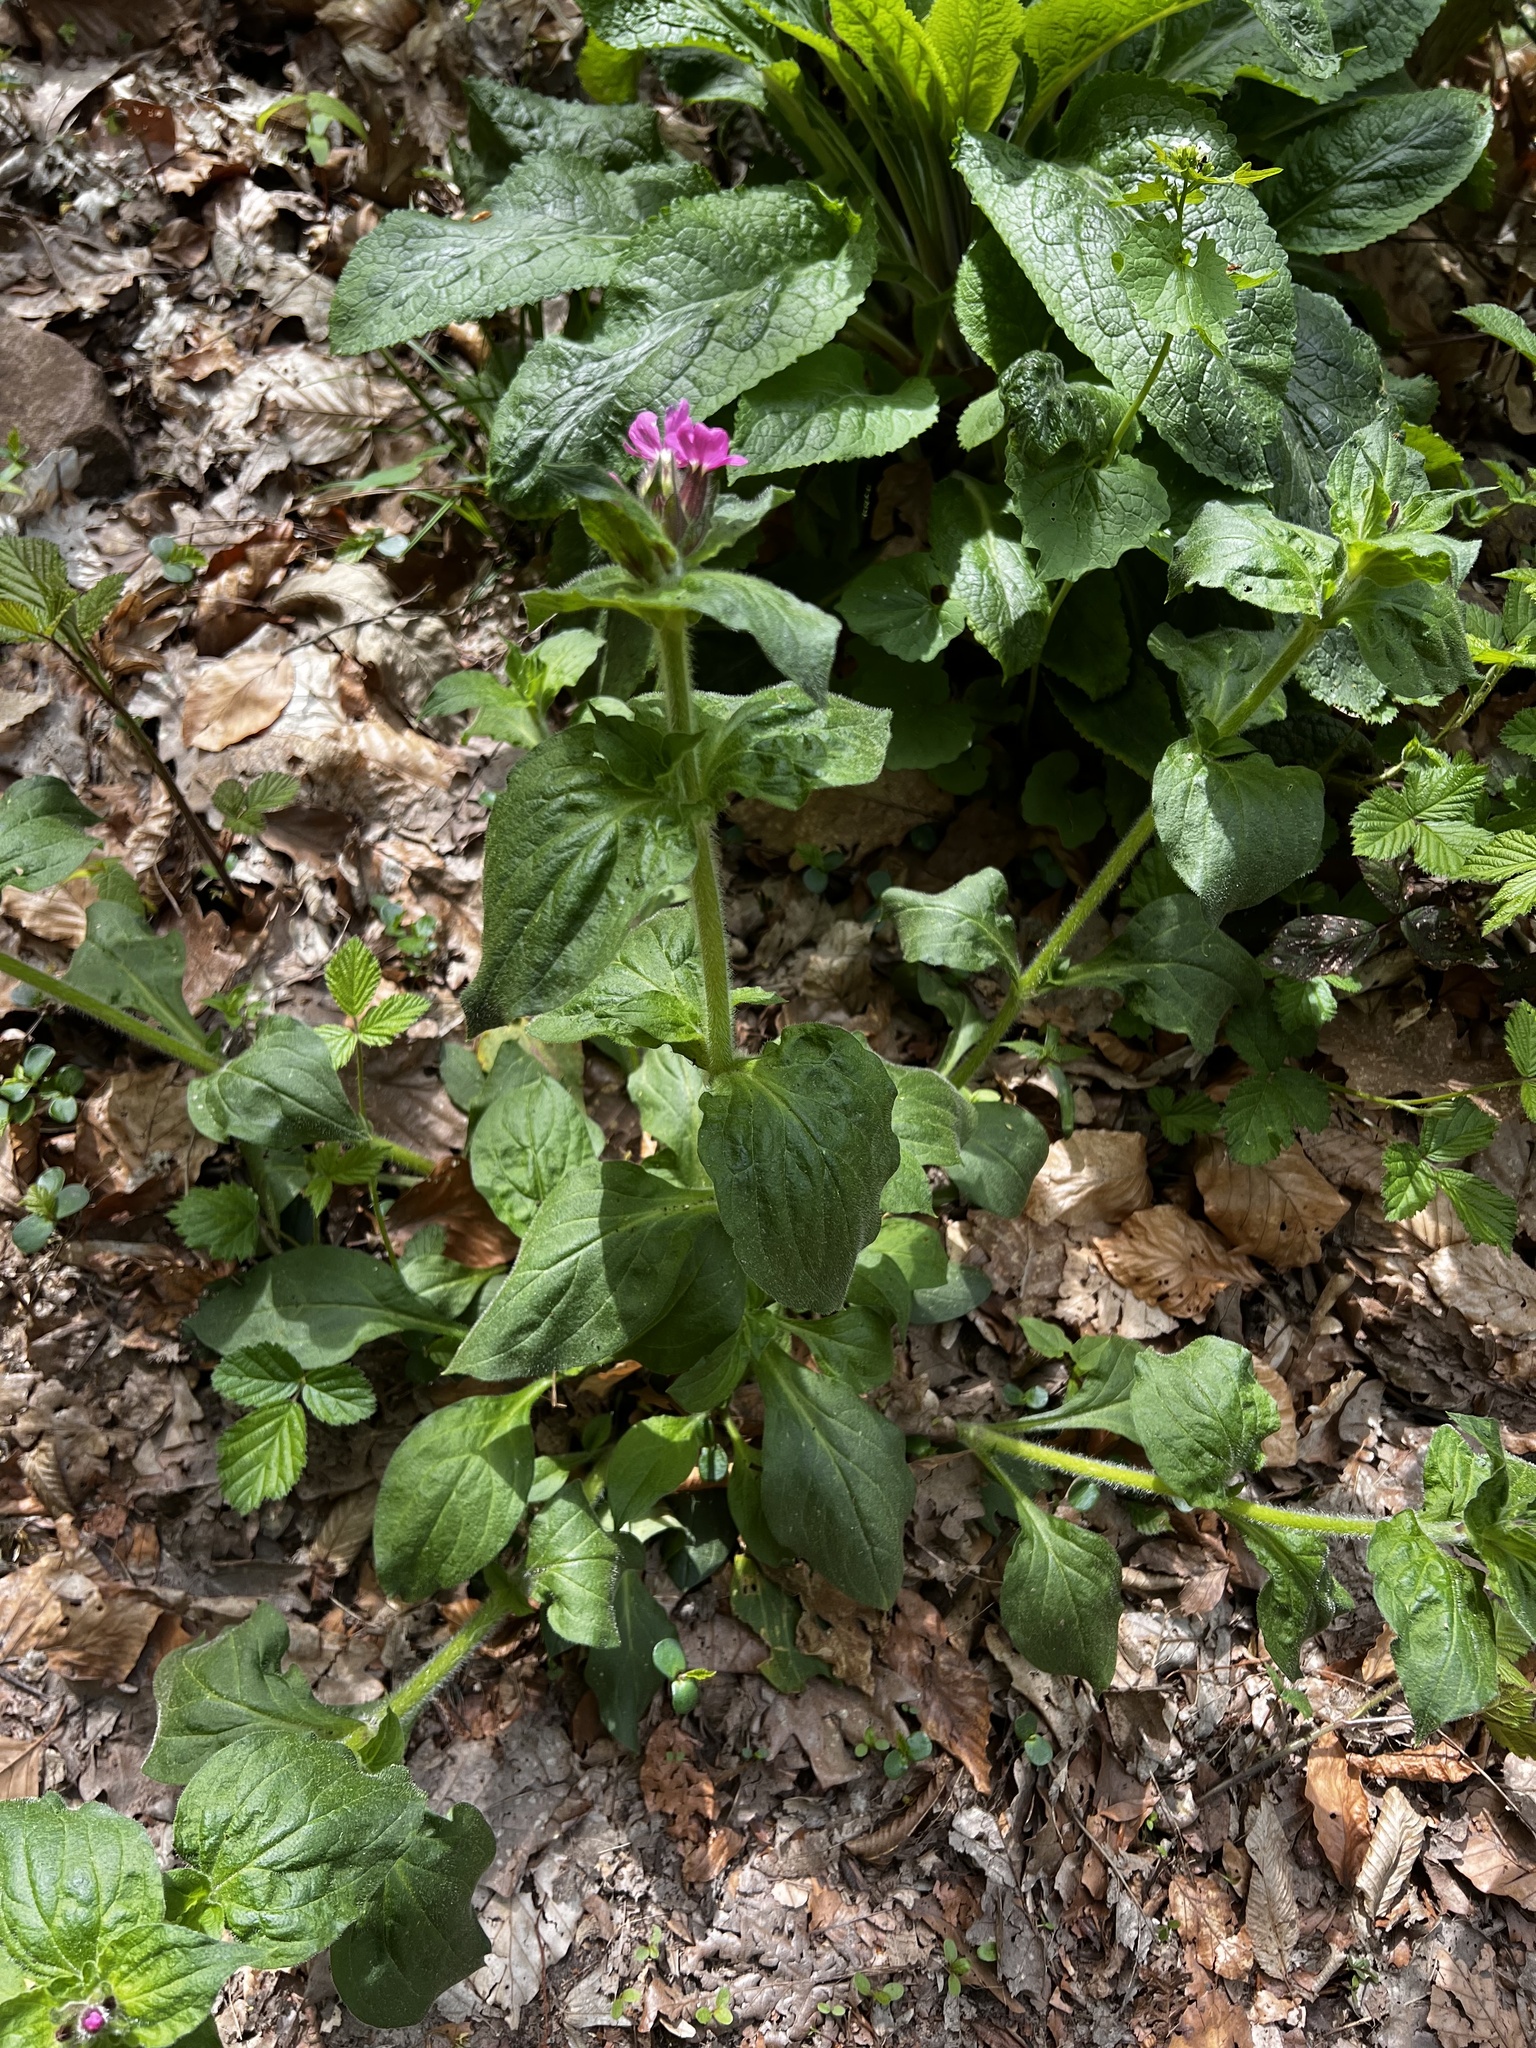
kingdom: Plantae
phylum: Tracheophyta
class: Magnoliopsida
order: Caryophyllales
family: Caryophyllaceae
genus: Silene
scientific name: Silene dioica
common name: Red campion
